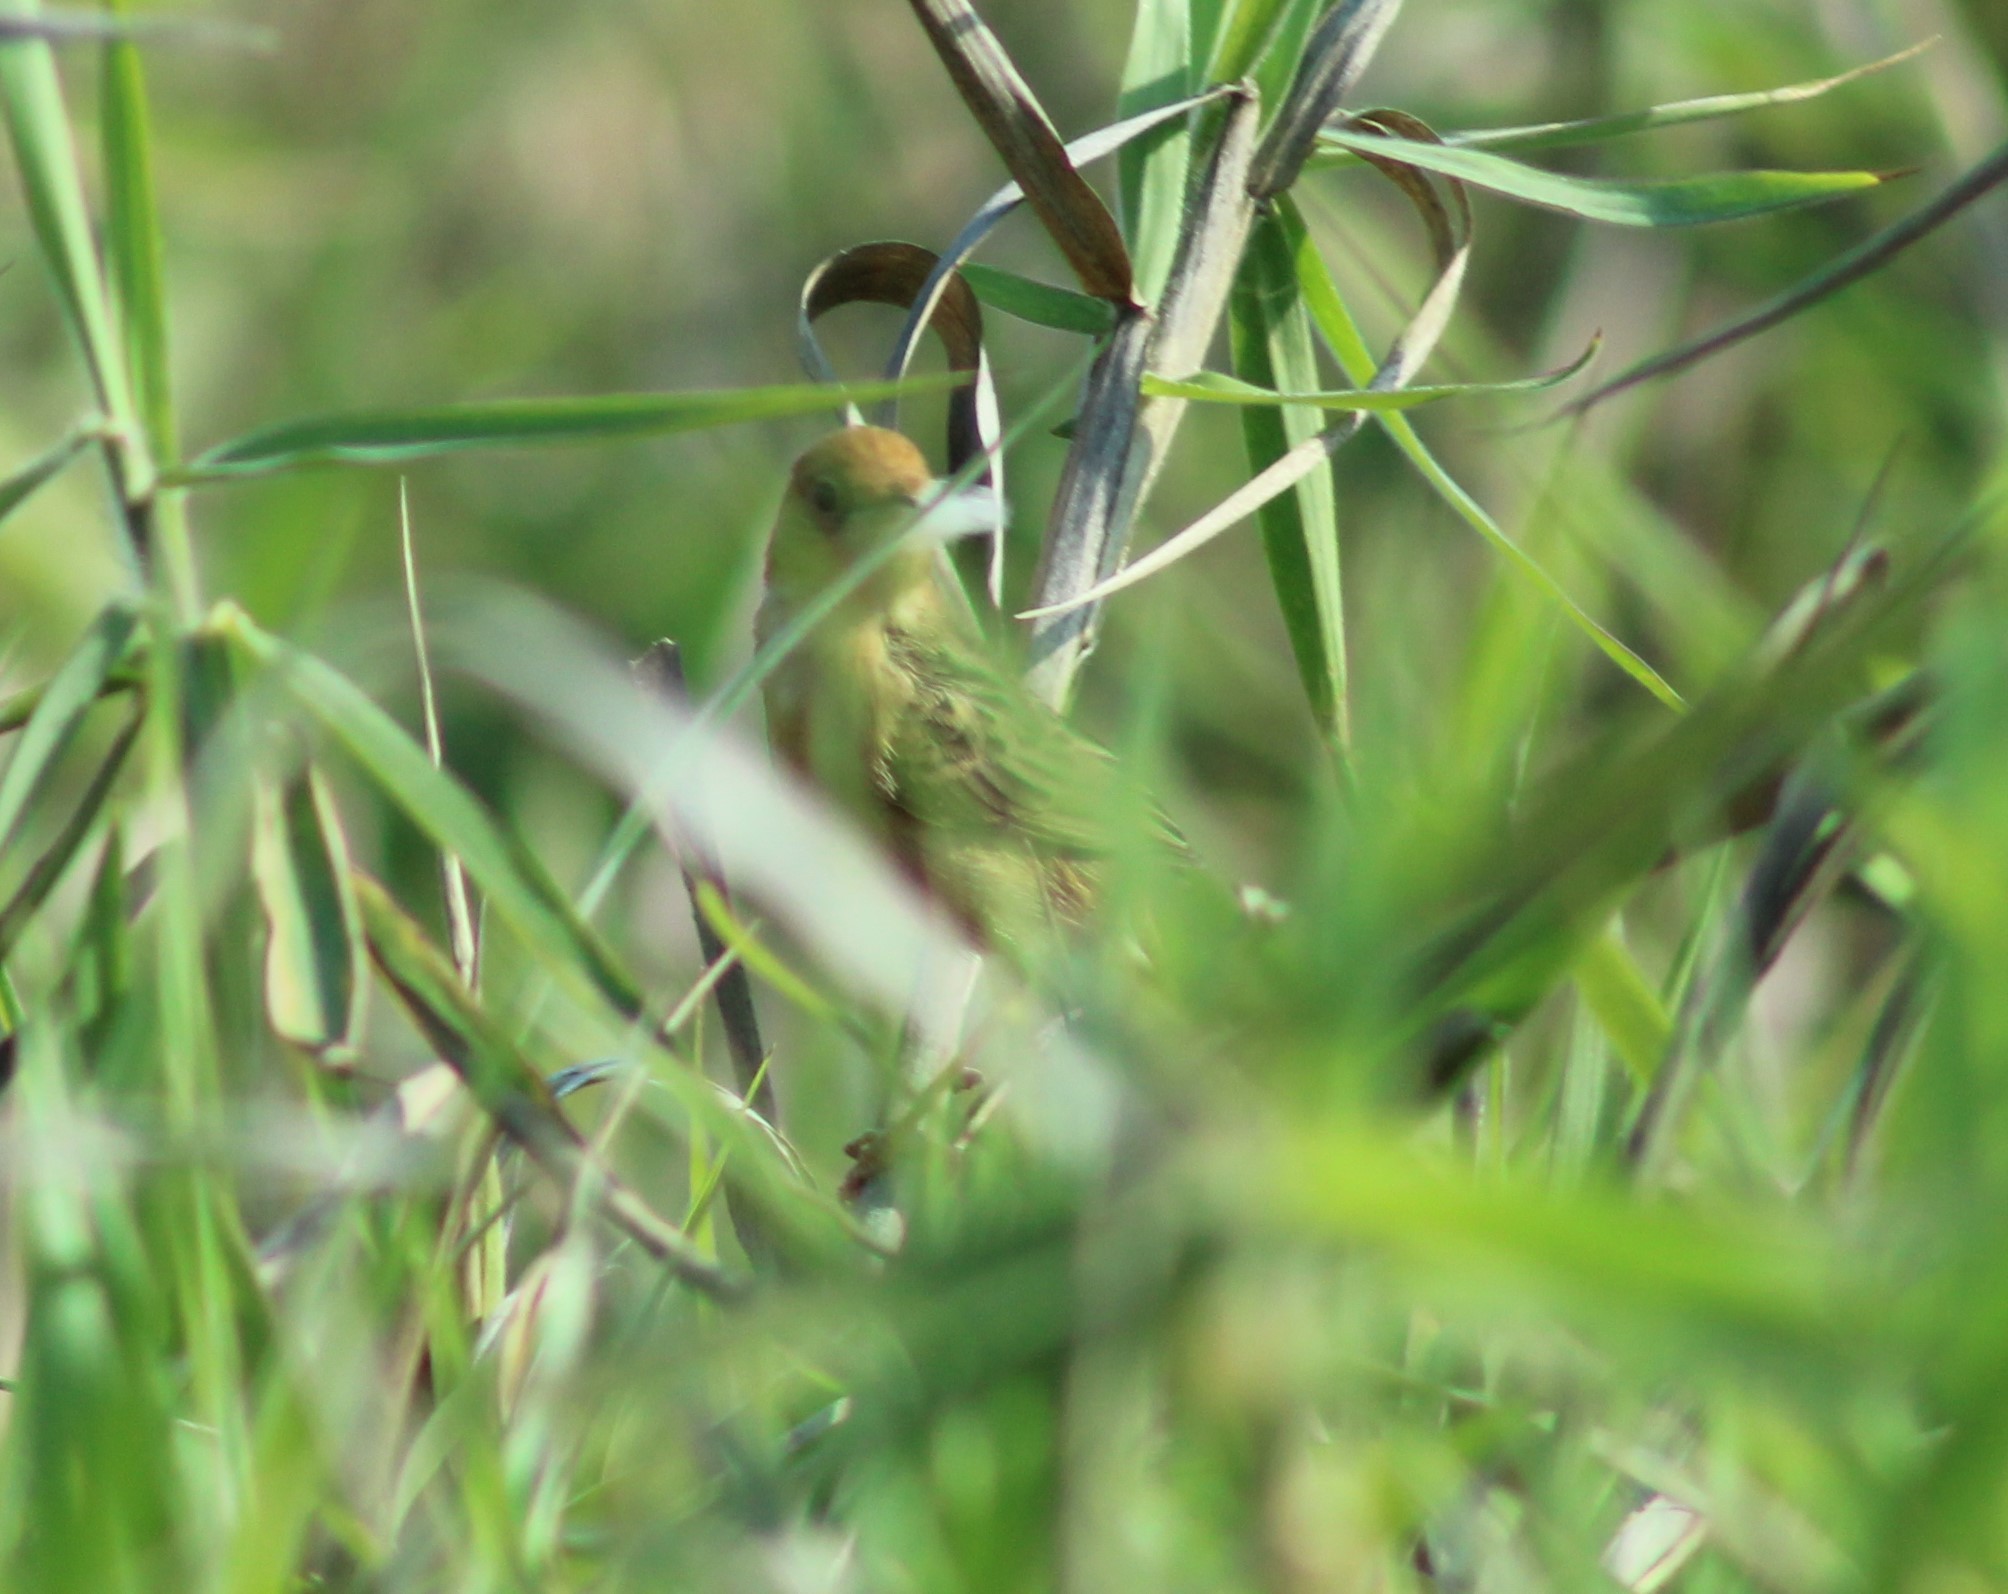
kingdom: Animalia
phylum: Chordata
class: Aves
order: Passeriformes
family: Cisticolidae
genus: Cisticola
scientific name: Cisticola exilis
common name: Golden-headed cisticola
